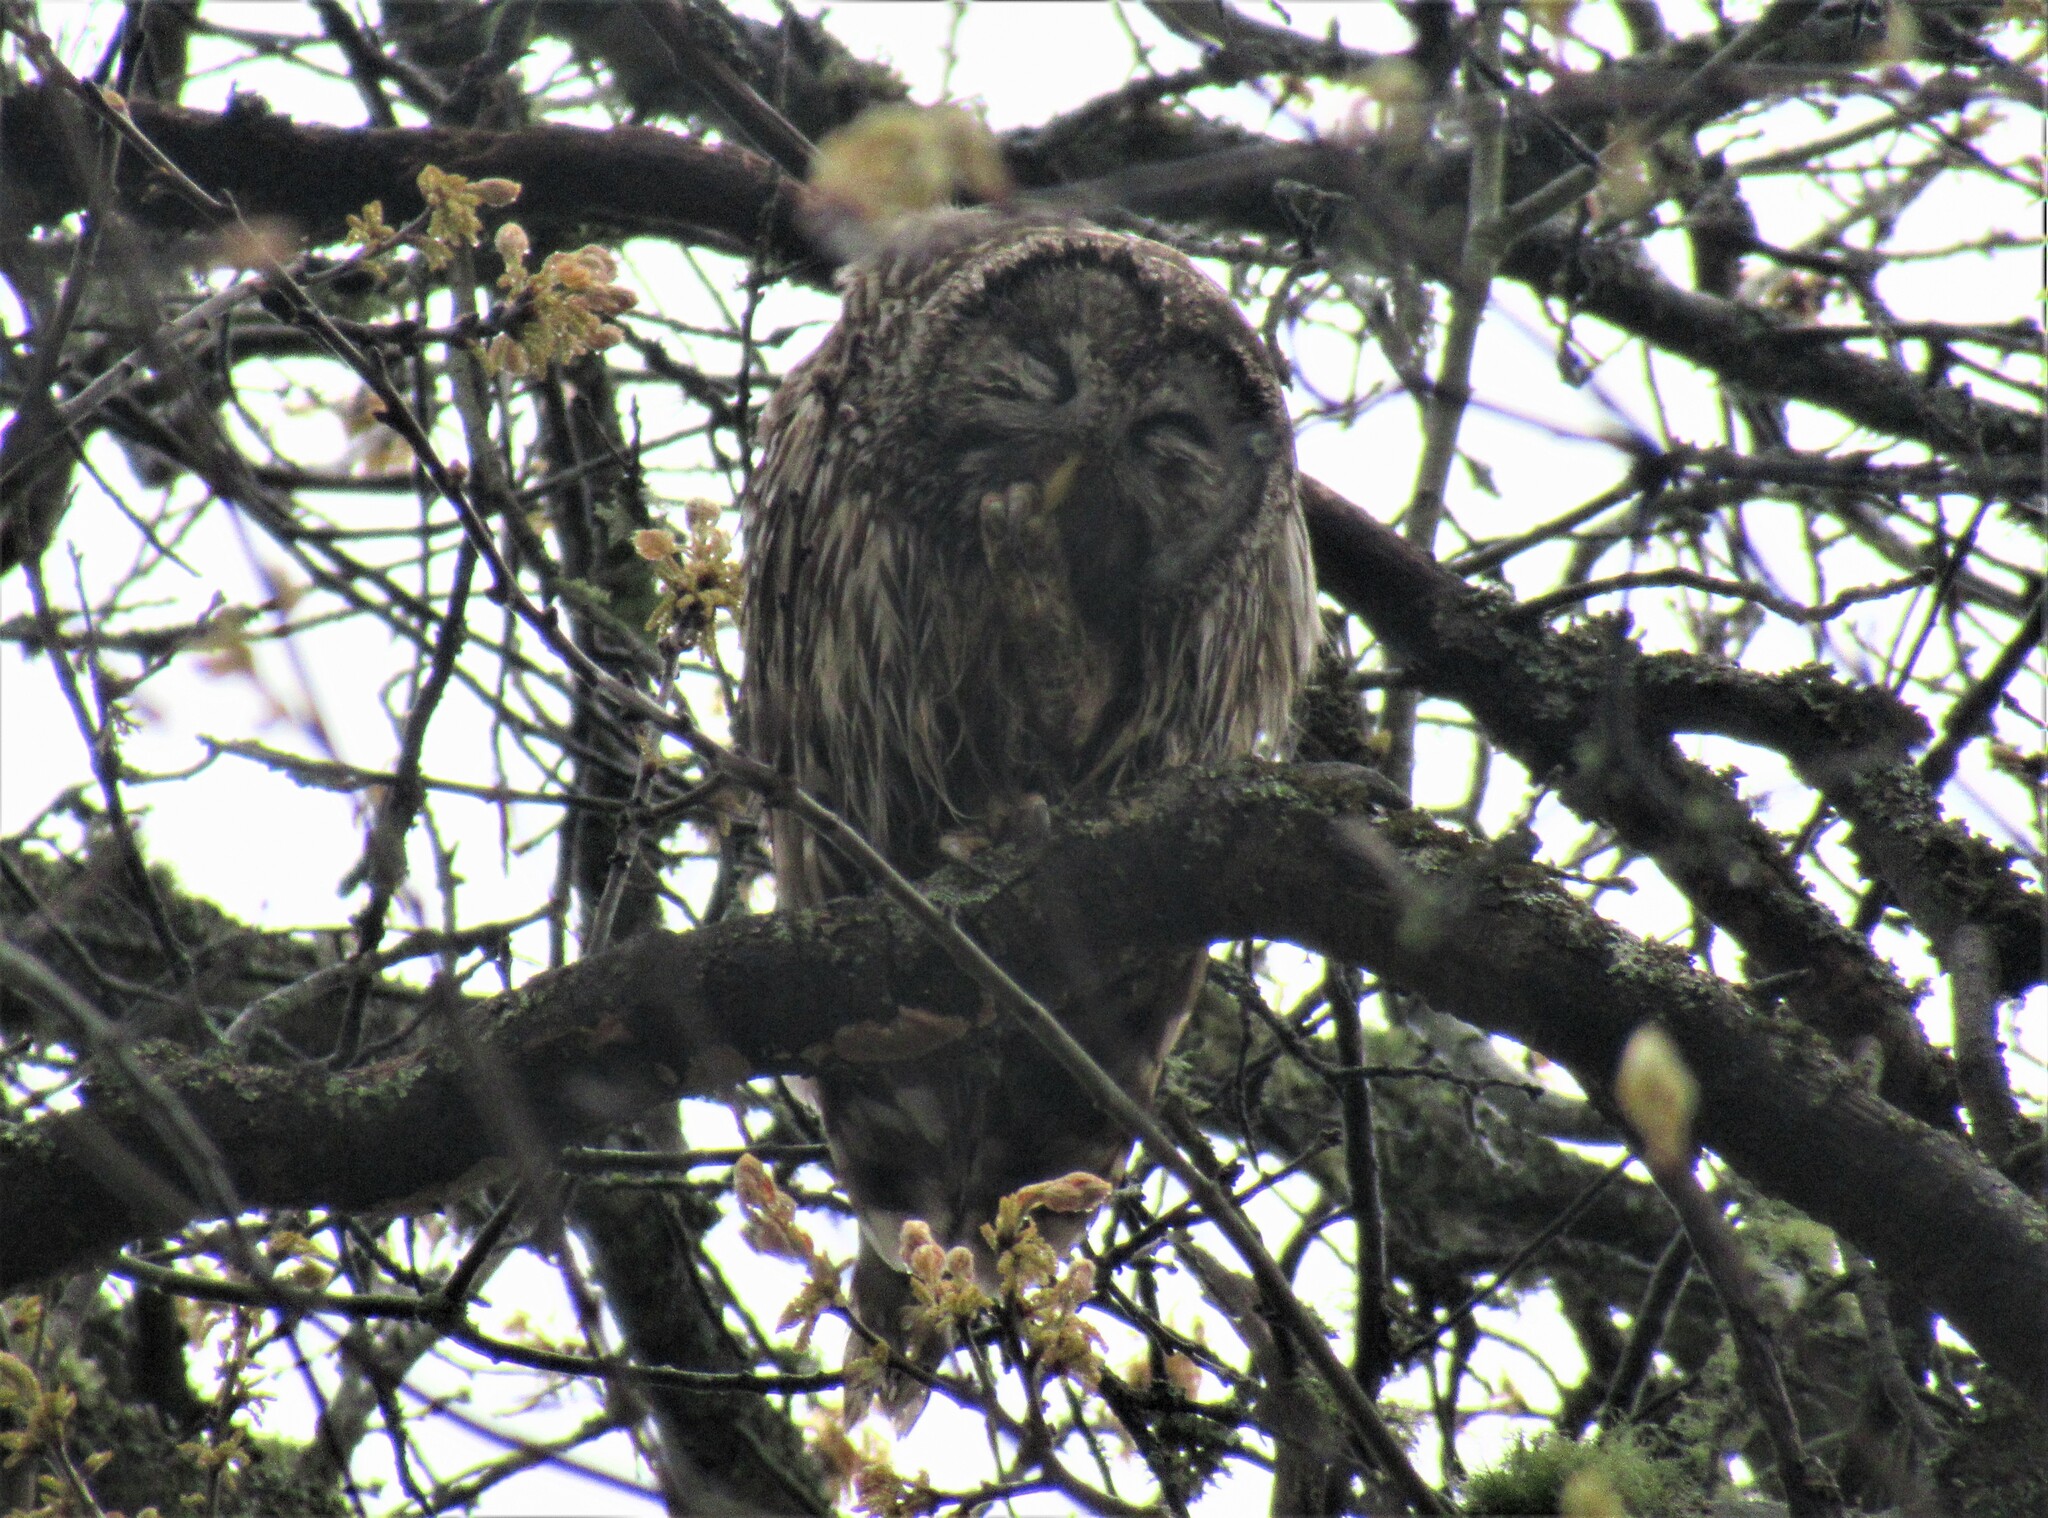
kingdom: Animalia
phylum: Chordata
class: Aves
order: Strigiformes
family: Strigidae
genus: Strix
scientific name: Strix varia
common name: Barred owl
